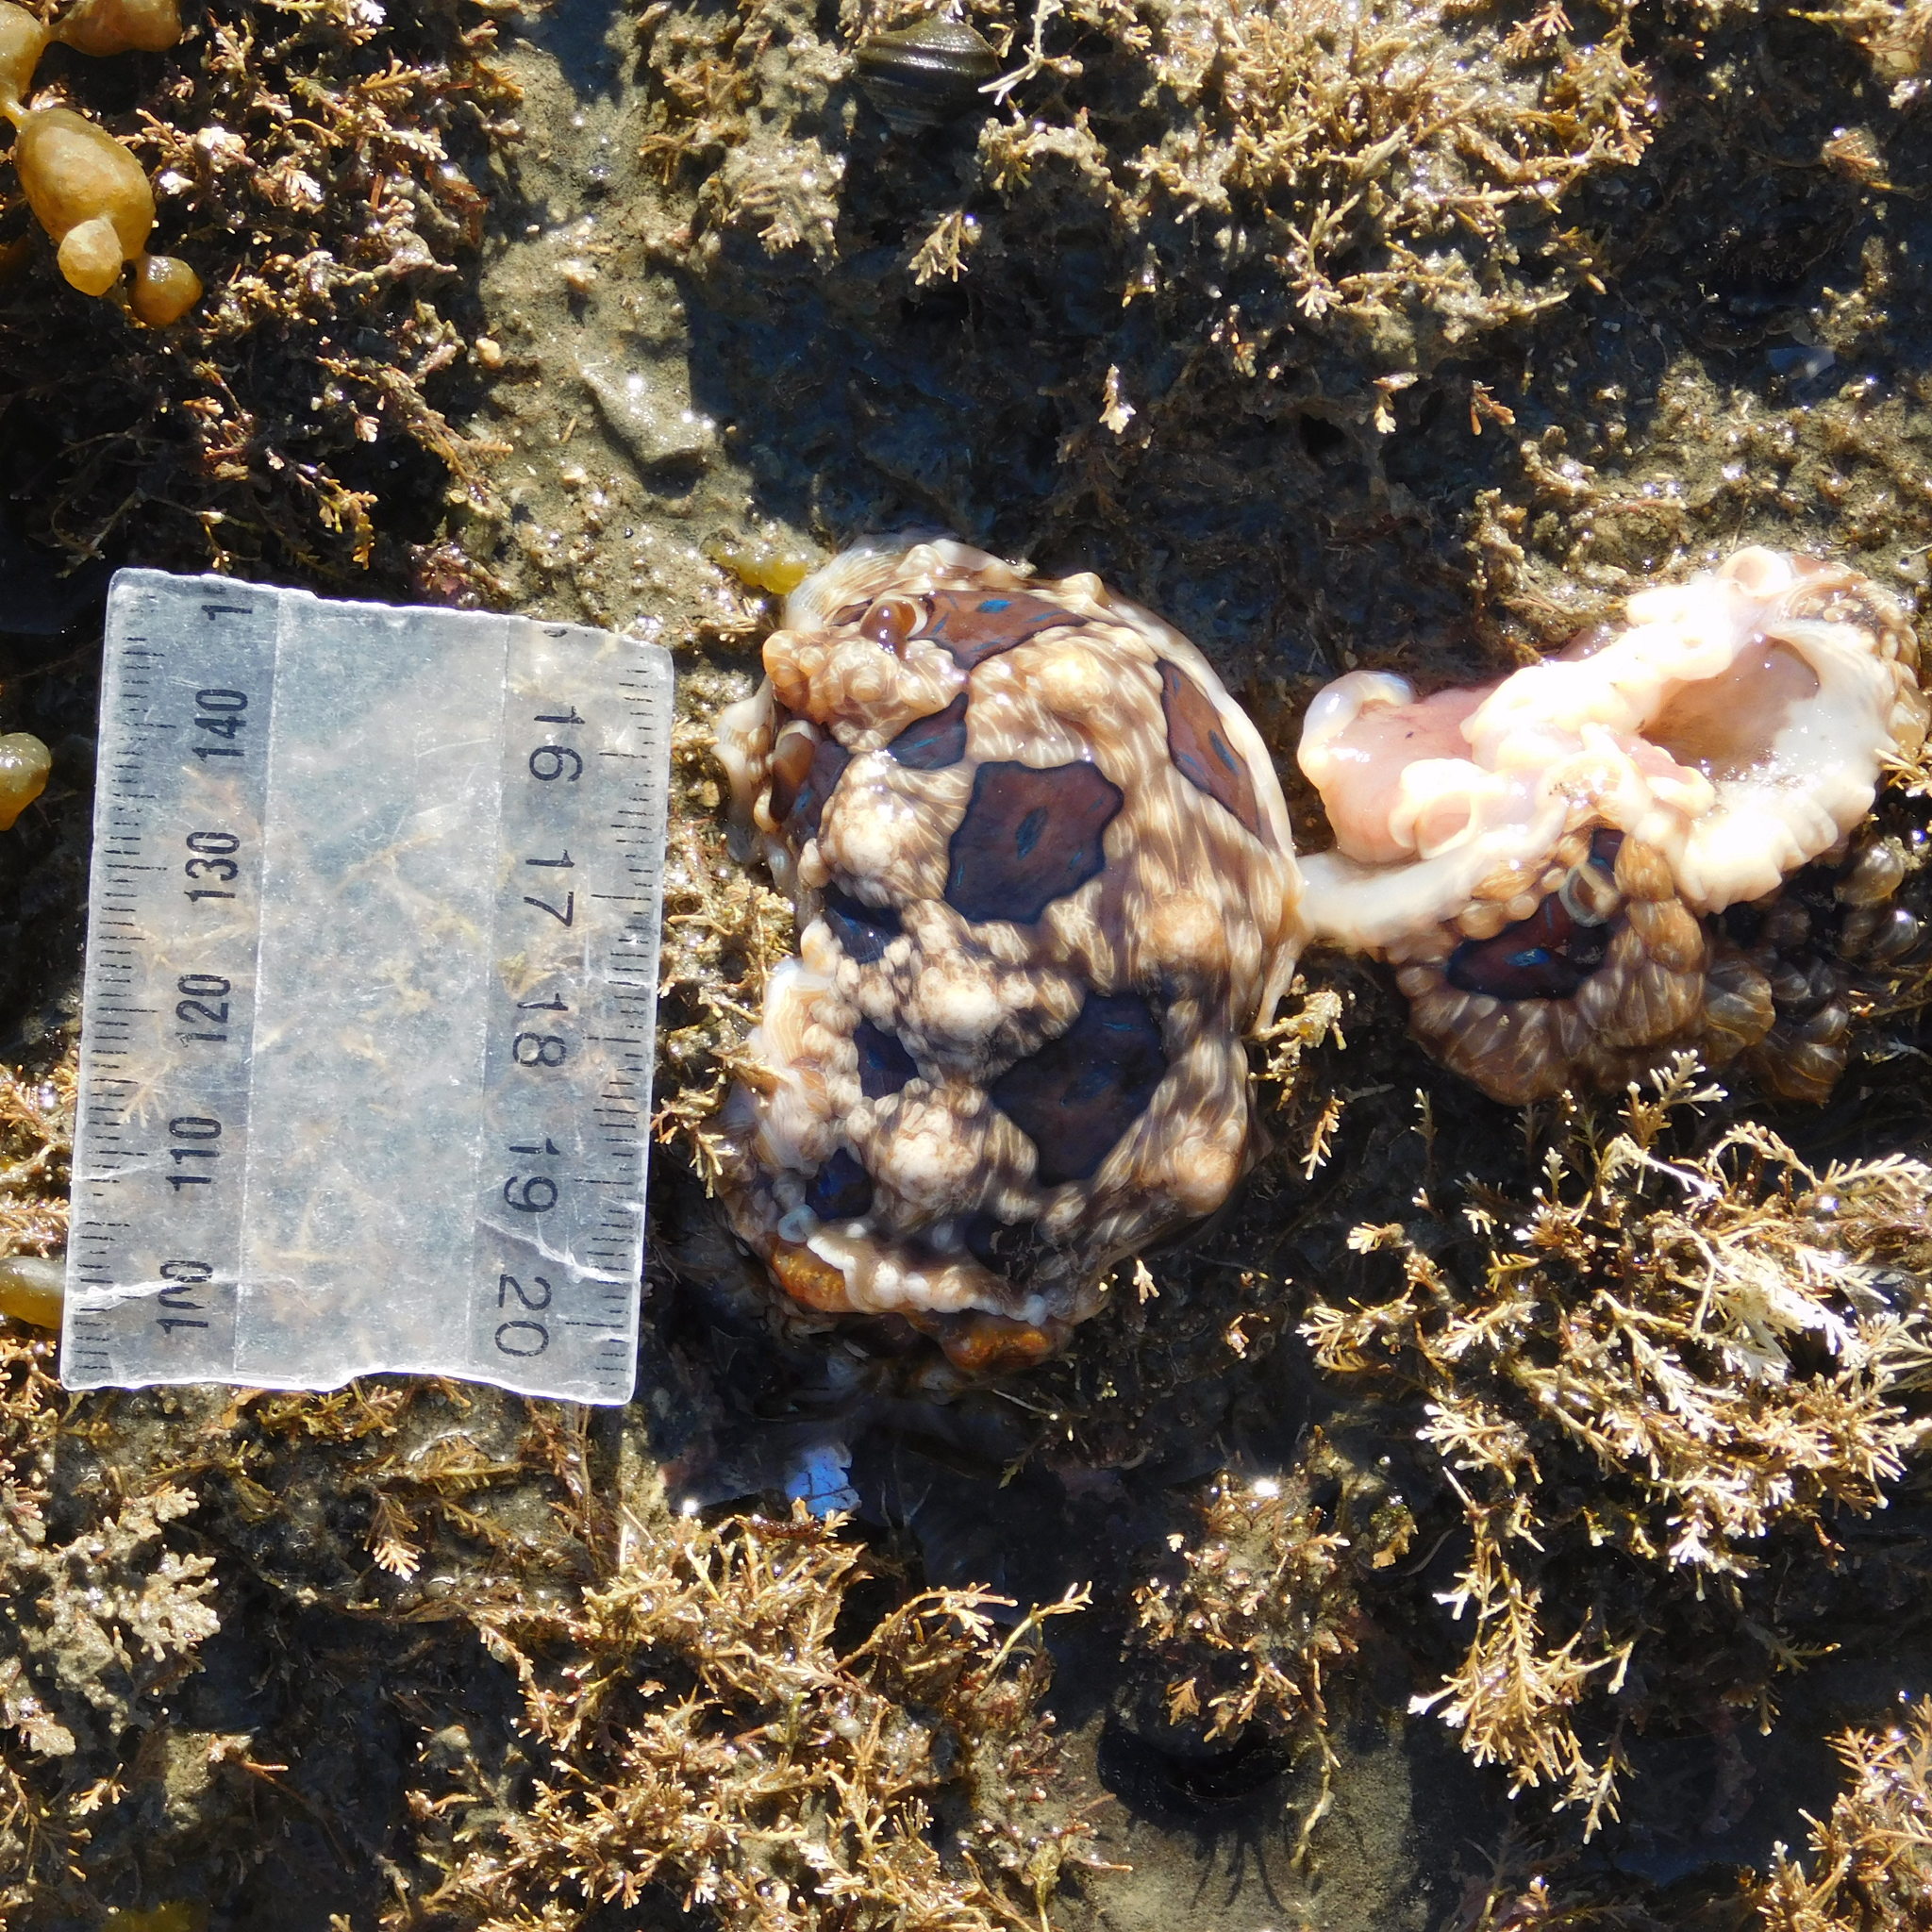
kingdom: Animalia
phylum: Mollusca
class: Gastropoda
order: Nudibranchia
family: Dendrodorididae
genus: Dendrodoris
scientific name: Dendrodoris krusensternii
